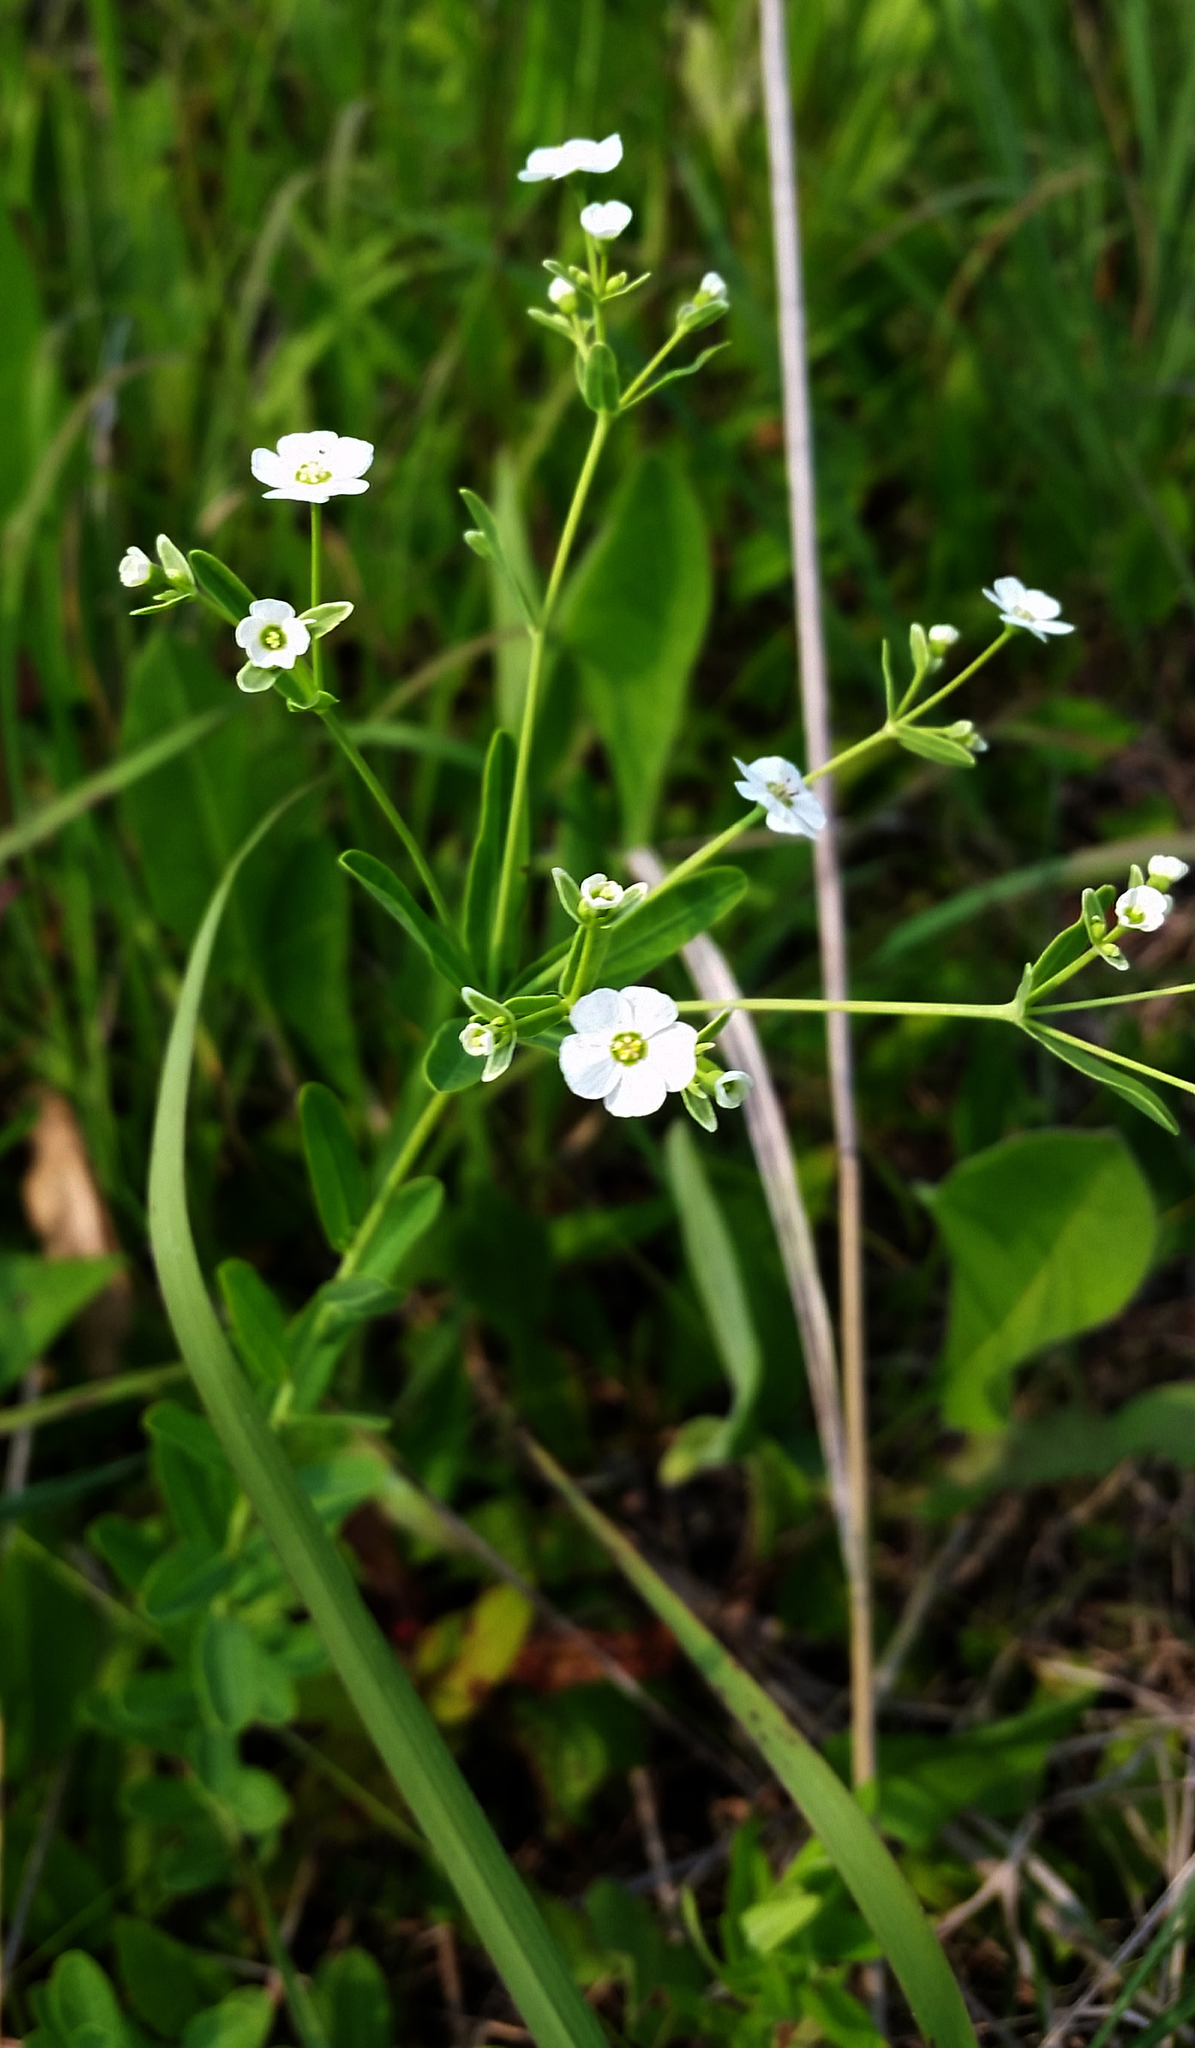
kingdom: Plantae
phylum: Tracheophyta
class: Magnoliopsida
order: Malpighiales
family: Euphorbiaceae
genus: Euphorbia
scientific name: Euphorbia corollata
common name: Flowering spurge
